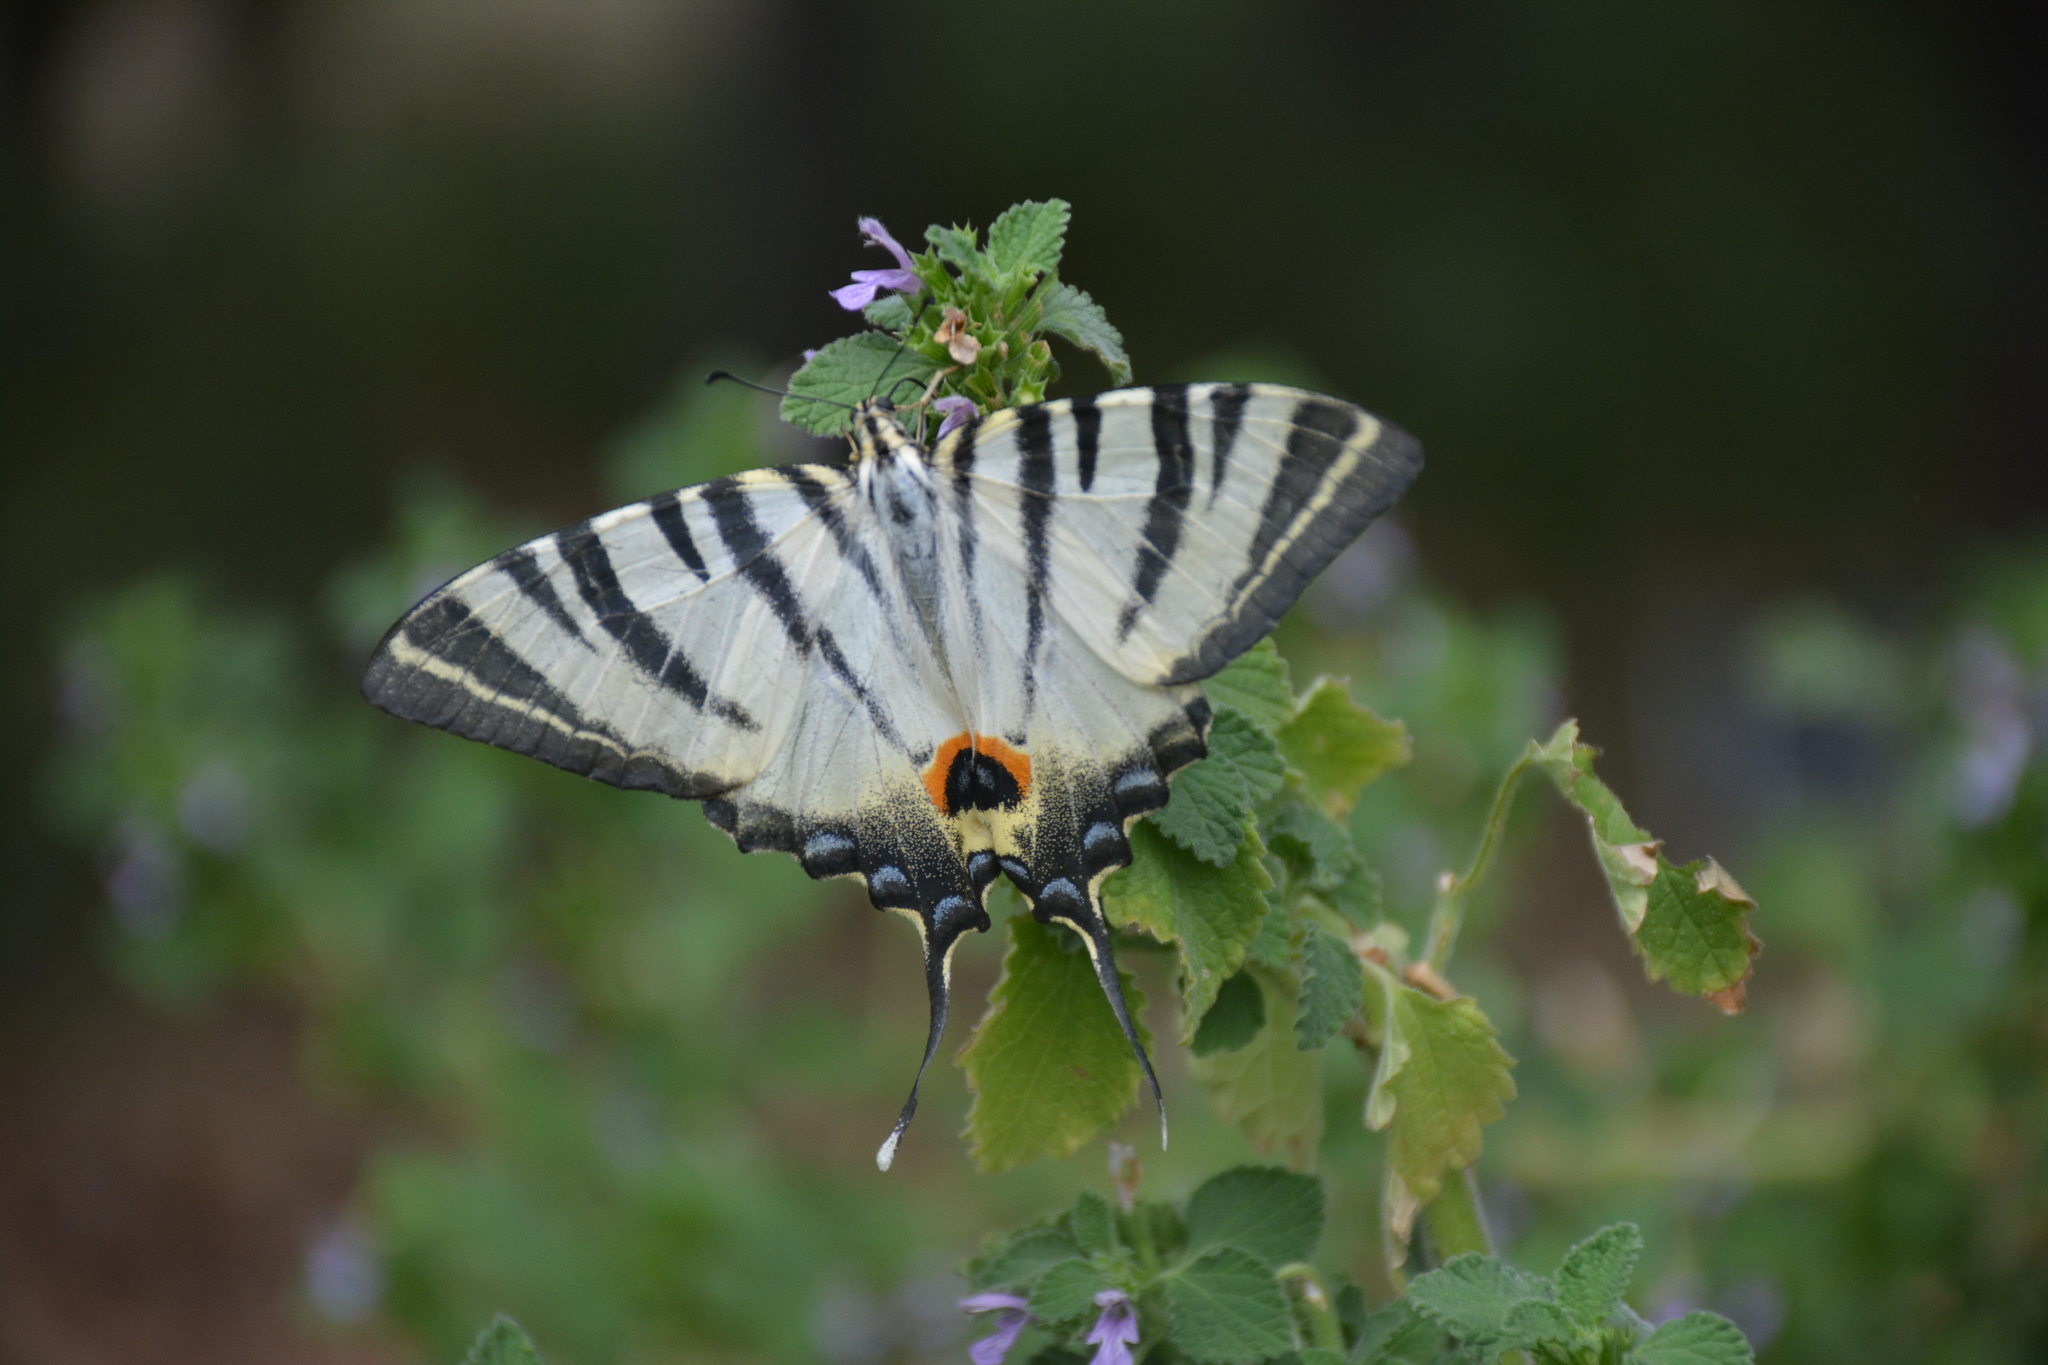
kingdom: Animalia
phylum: Arthropoda
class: Insecta
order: Lepidoptera
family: Papilionidae
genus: Iphiclides
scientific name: Iphiclides podalirius
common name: Scarce swallowtail
